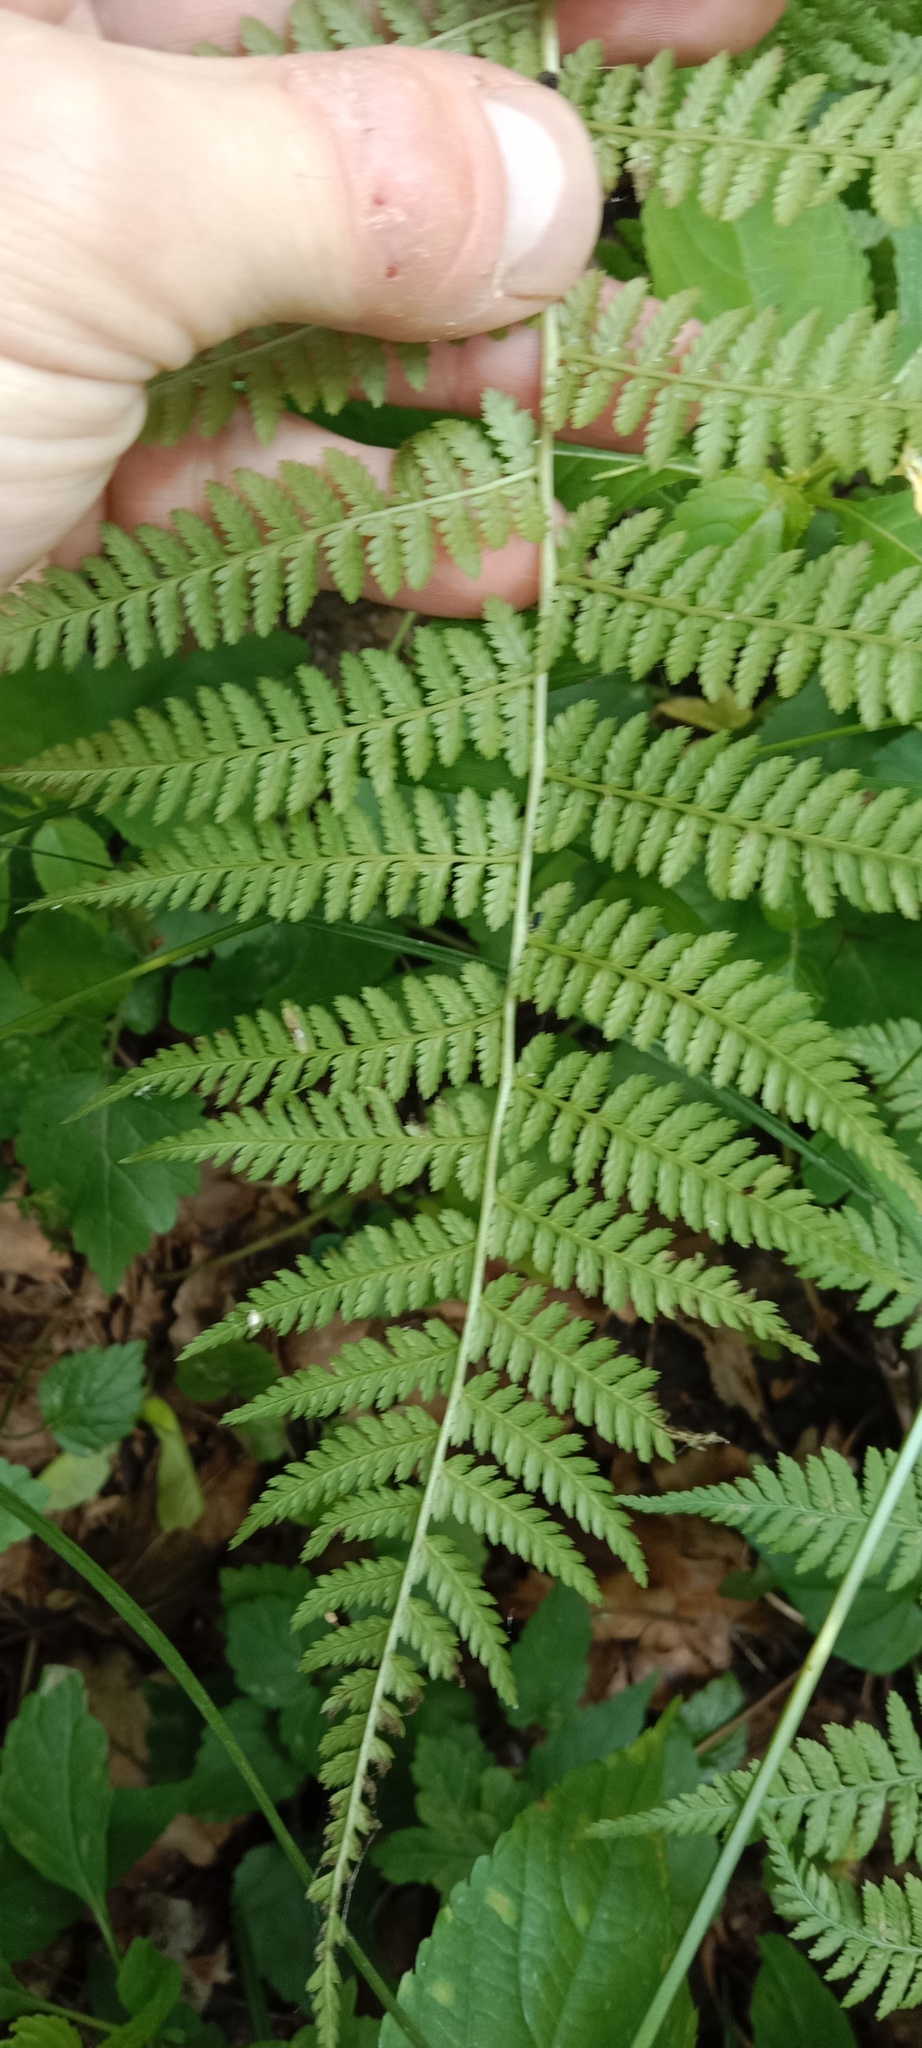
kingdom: Plantae
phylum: Tracheophyta
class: Polypodiopsida
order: Polypodiales
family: Athyriaceae
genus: Athyrium
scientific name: Athyrium filix-femina
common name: Lady fern
